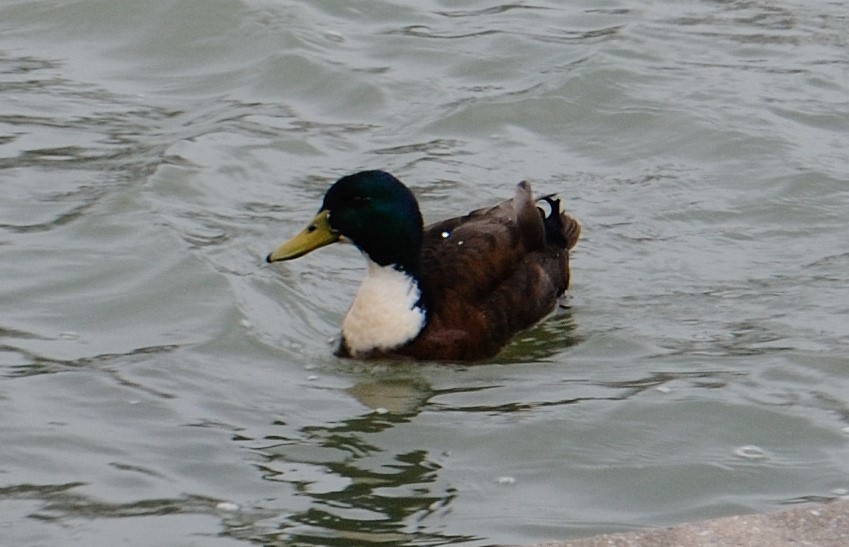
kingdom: Animalia
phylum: Chordata
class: Aves
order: Anseriformes
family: Anatidae
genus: Anas
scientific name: Anas platyrhynchos
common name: Mallard
